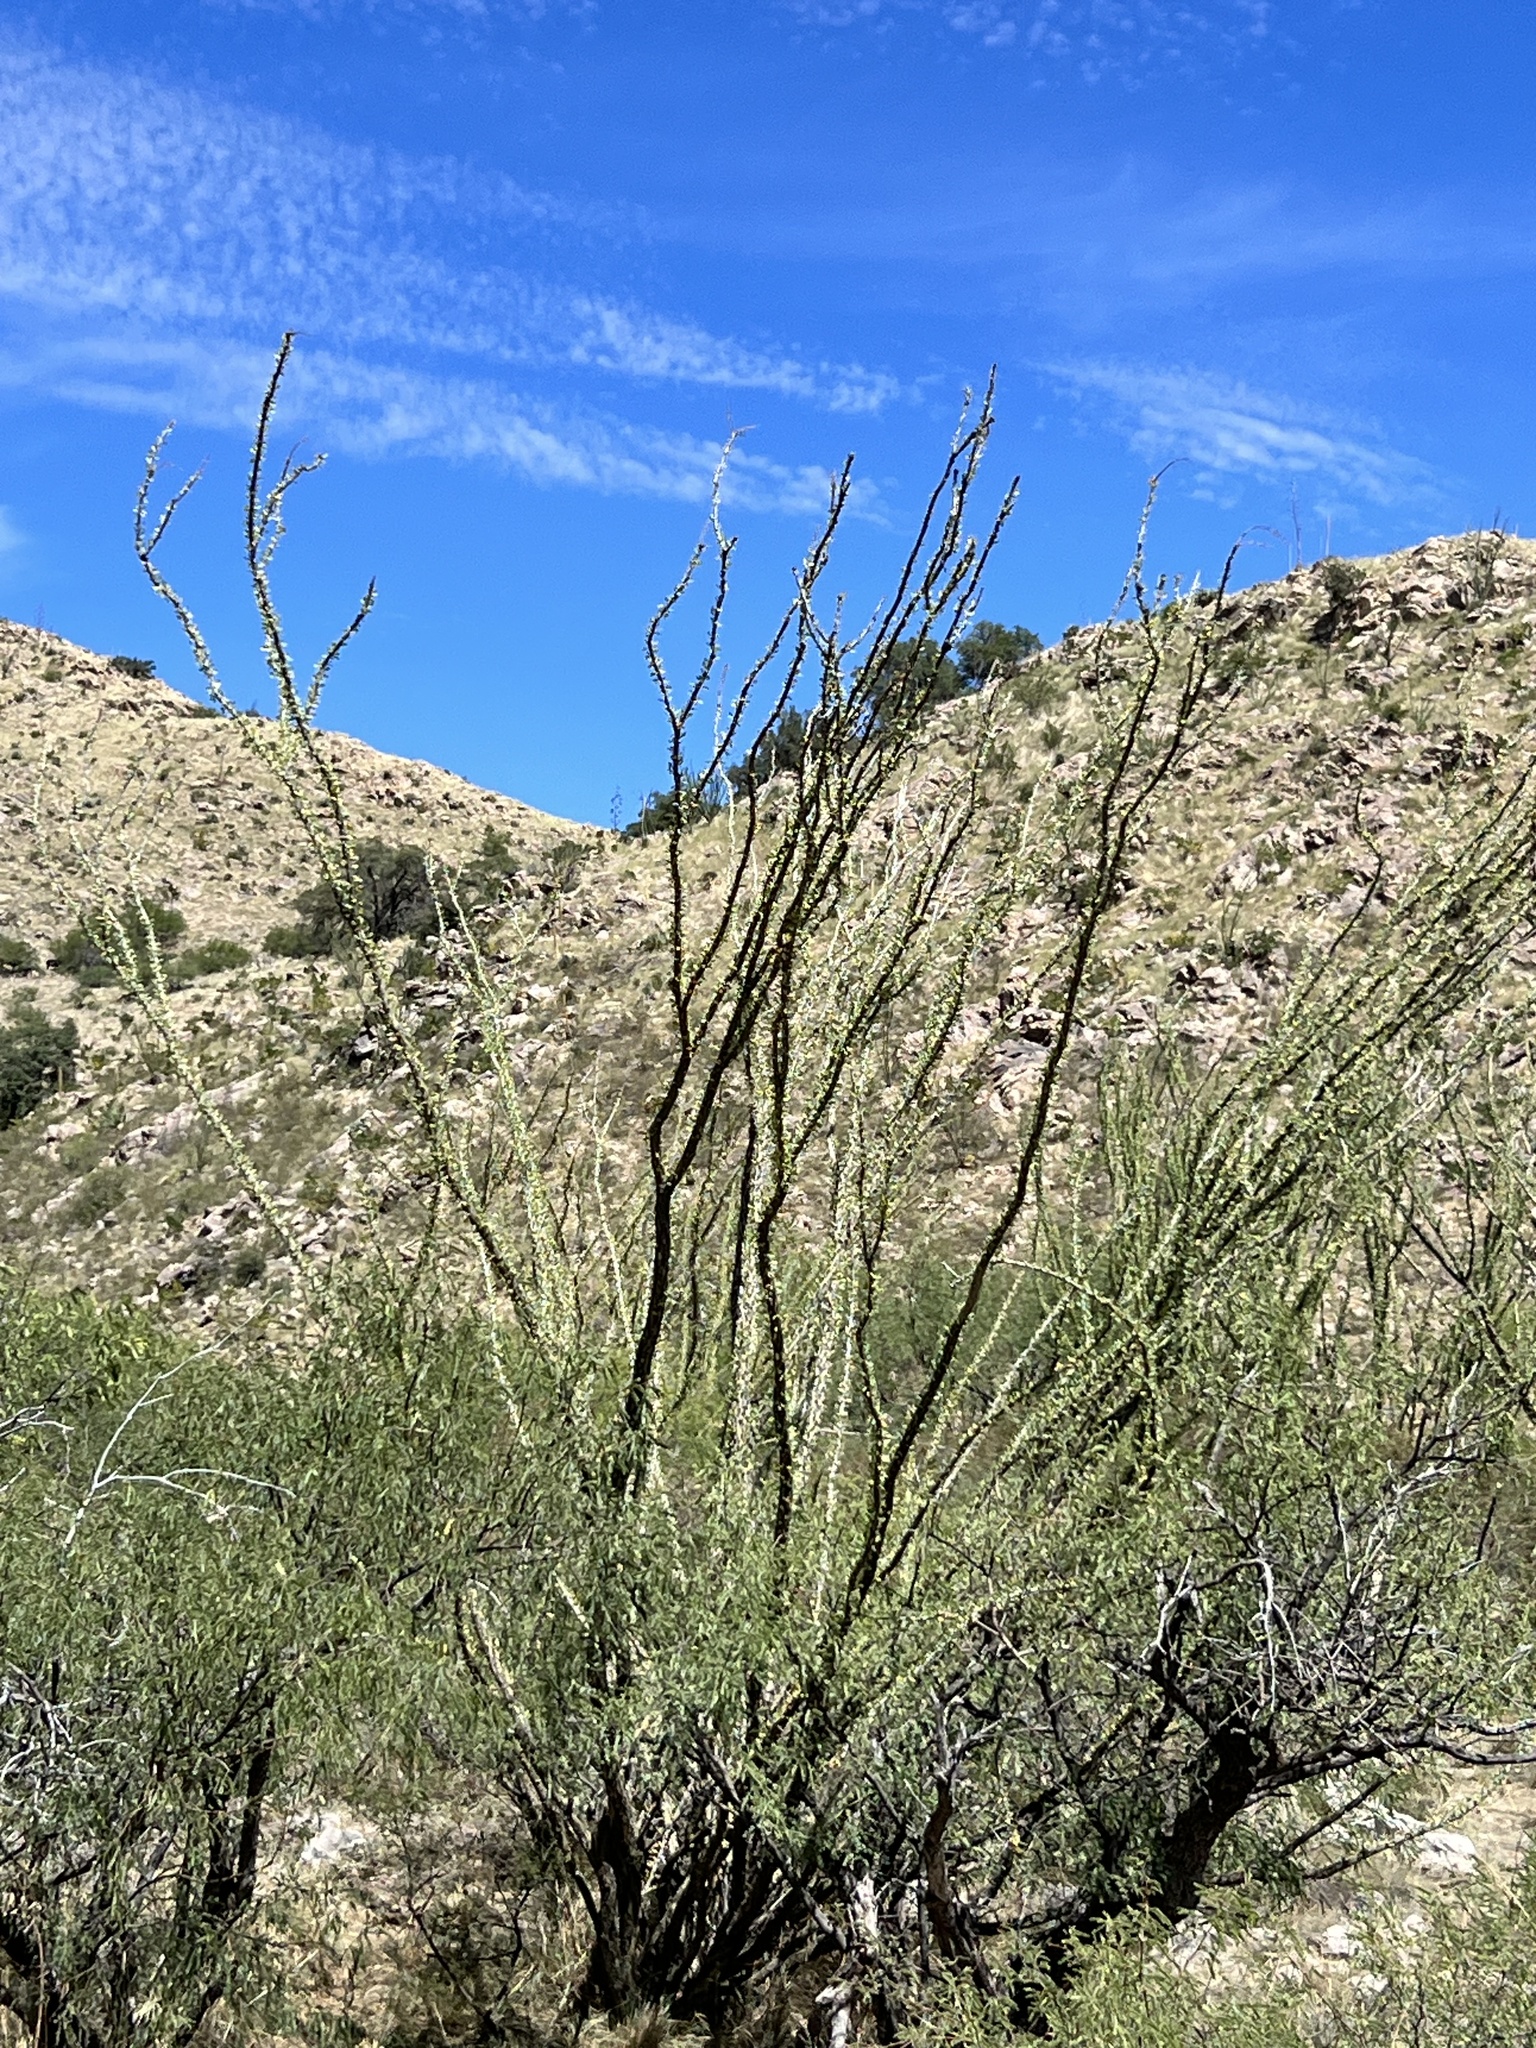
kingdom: Plantae
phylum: Tracheophyta
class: Magnoliopsida
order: Ericales
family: Fouquieriaceae
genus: Fouquieria
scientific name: Fouquieria splendens
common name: Vine-cactus
